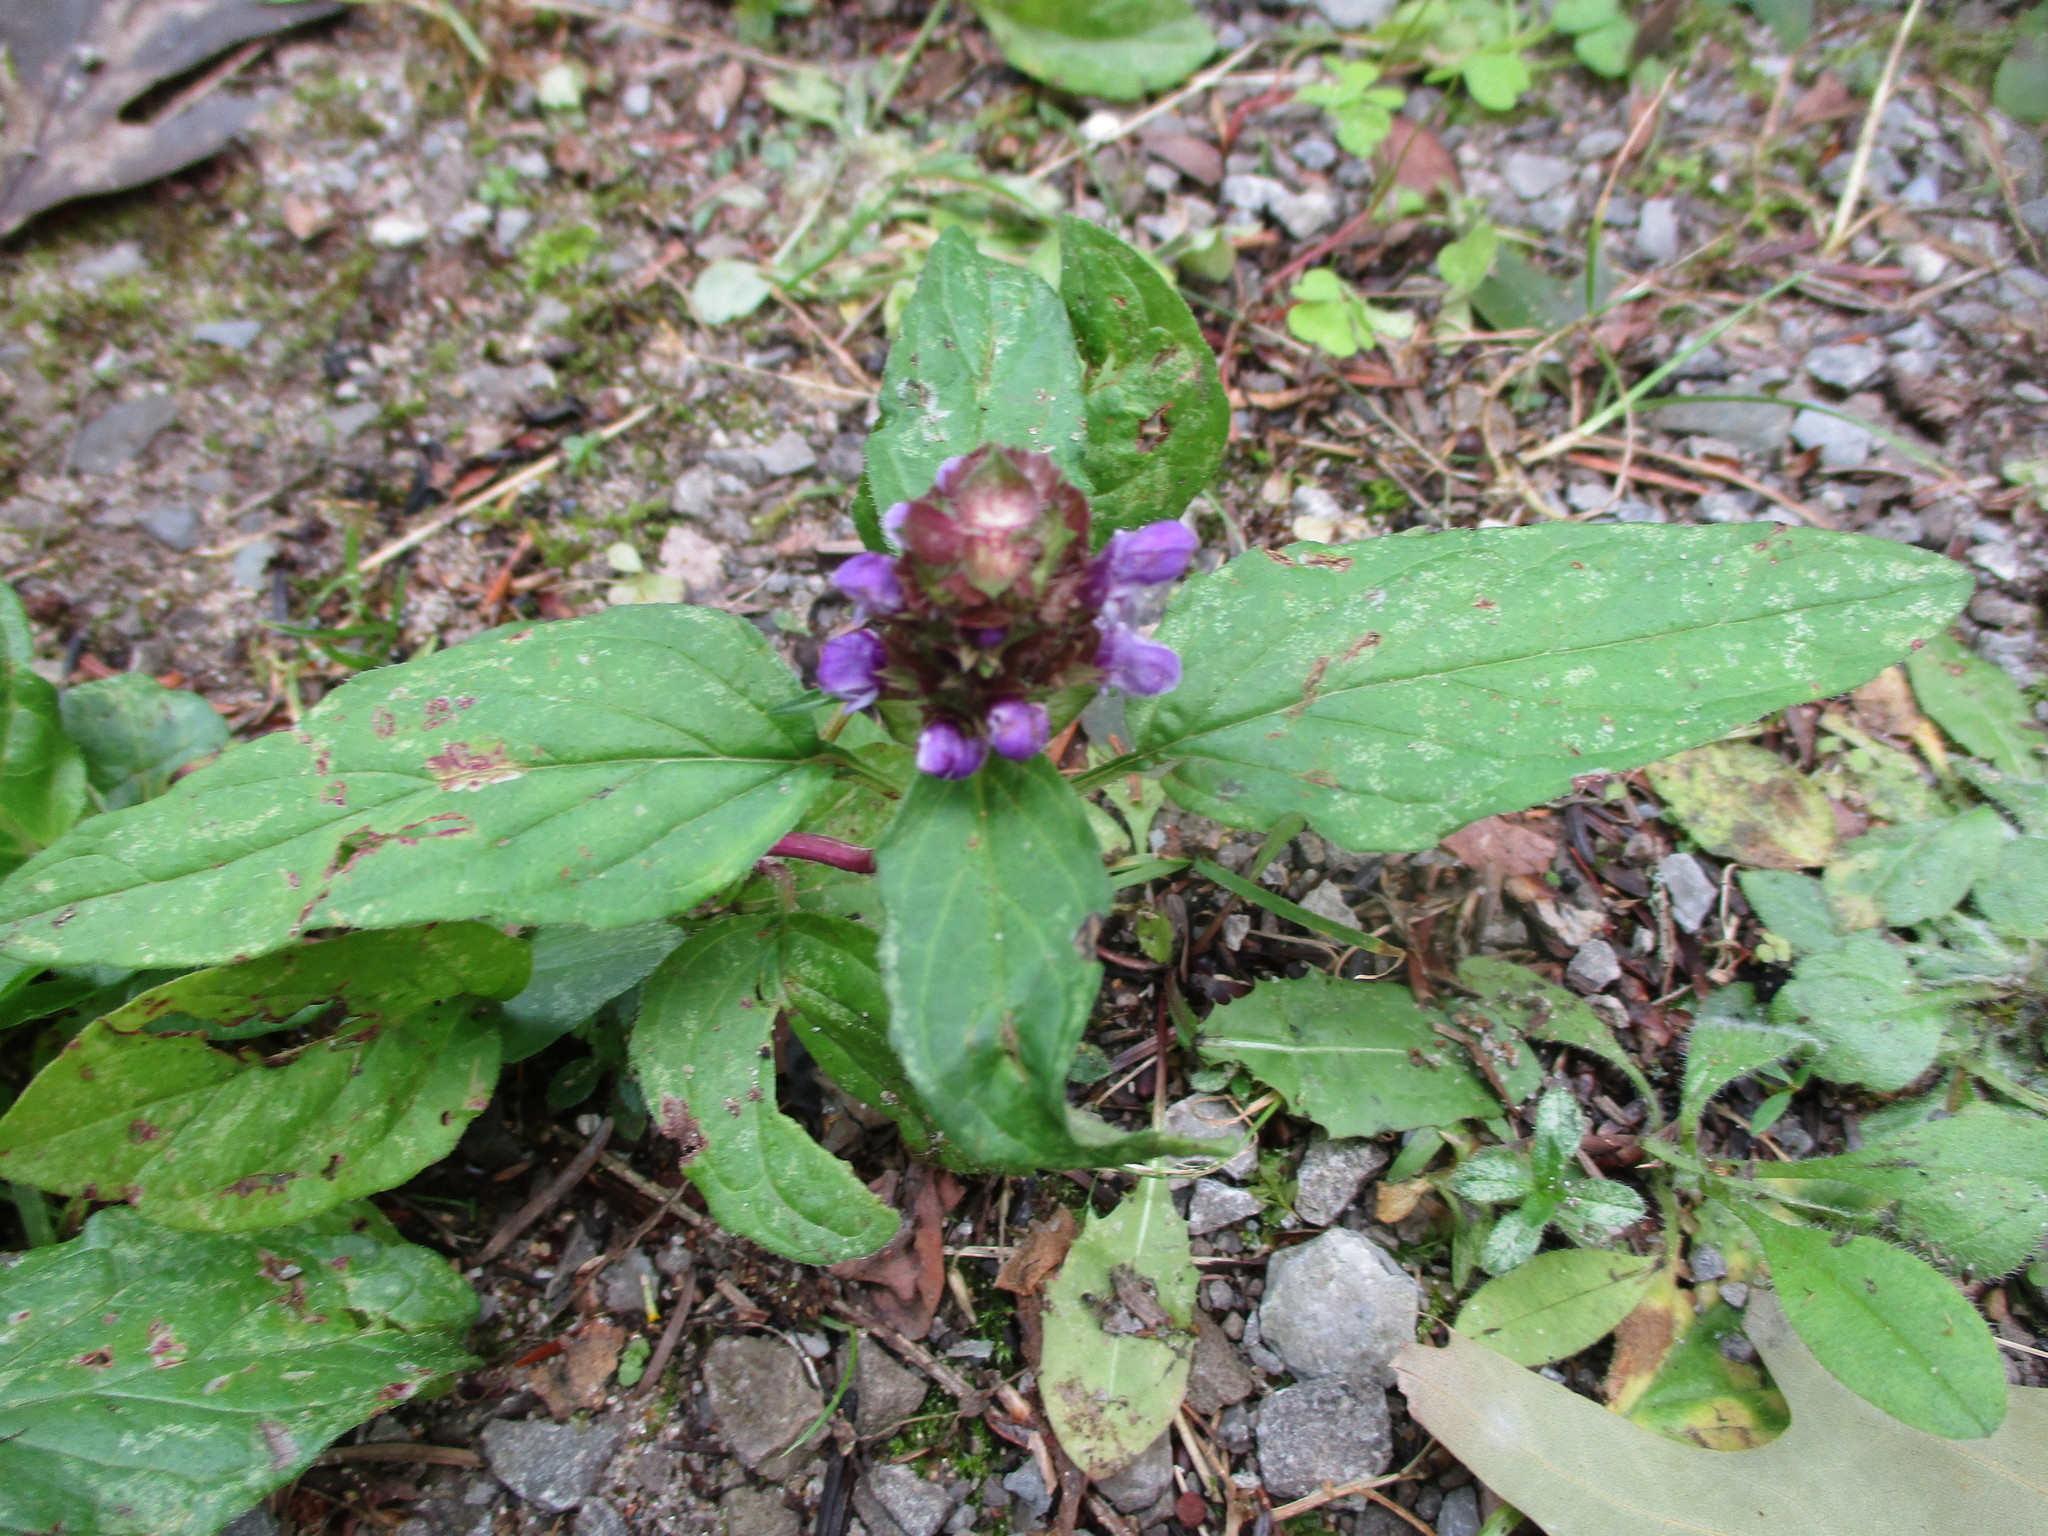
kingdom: Plantae
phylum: Tracheophyta
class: Magnoliopsida
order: Lamiales
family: Lamiaceae
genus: Prunella
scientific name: Prunella vulgaris
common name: Heal-all
